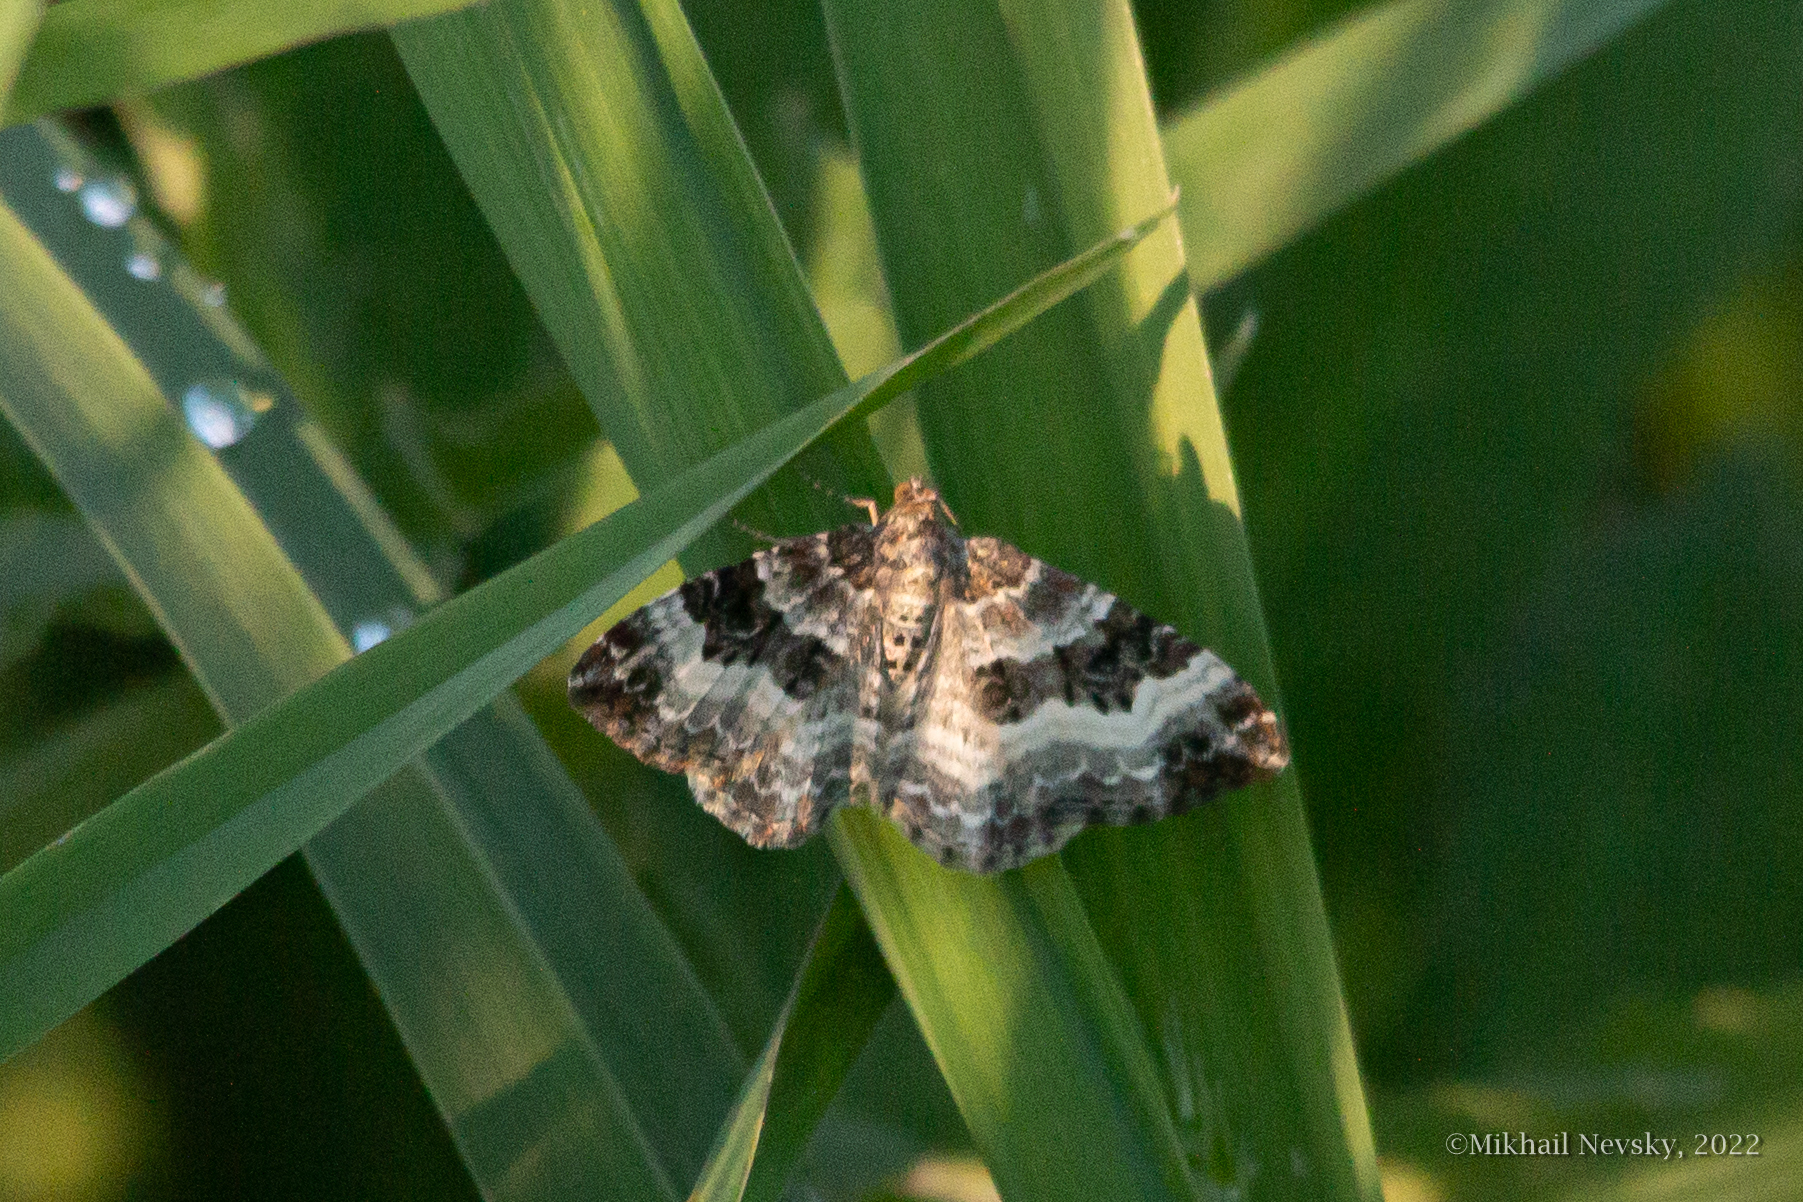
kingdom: Animalia
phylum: Arthropoda
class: Insecta
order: Lepidoptera
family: Geometridae
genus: Epirrhoe
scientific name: Epirrhoe alternata
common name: Common carpet
